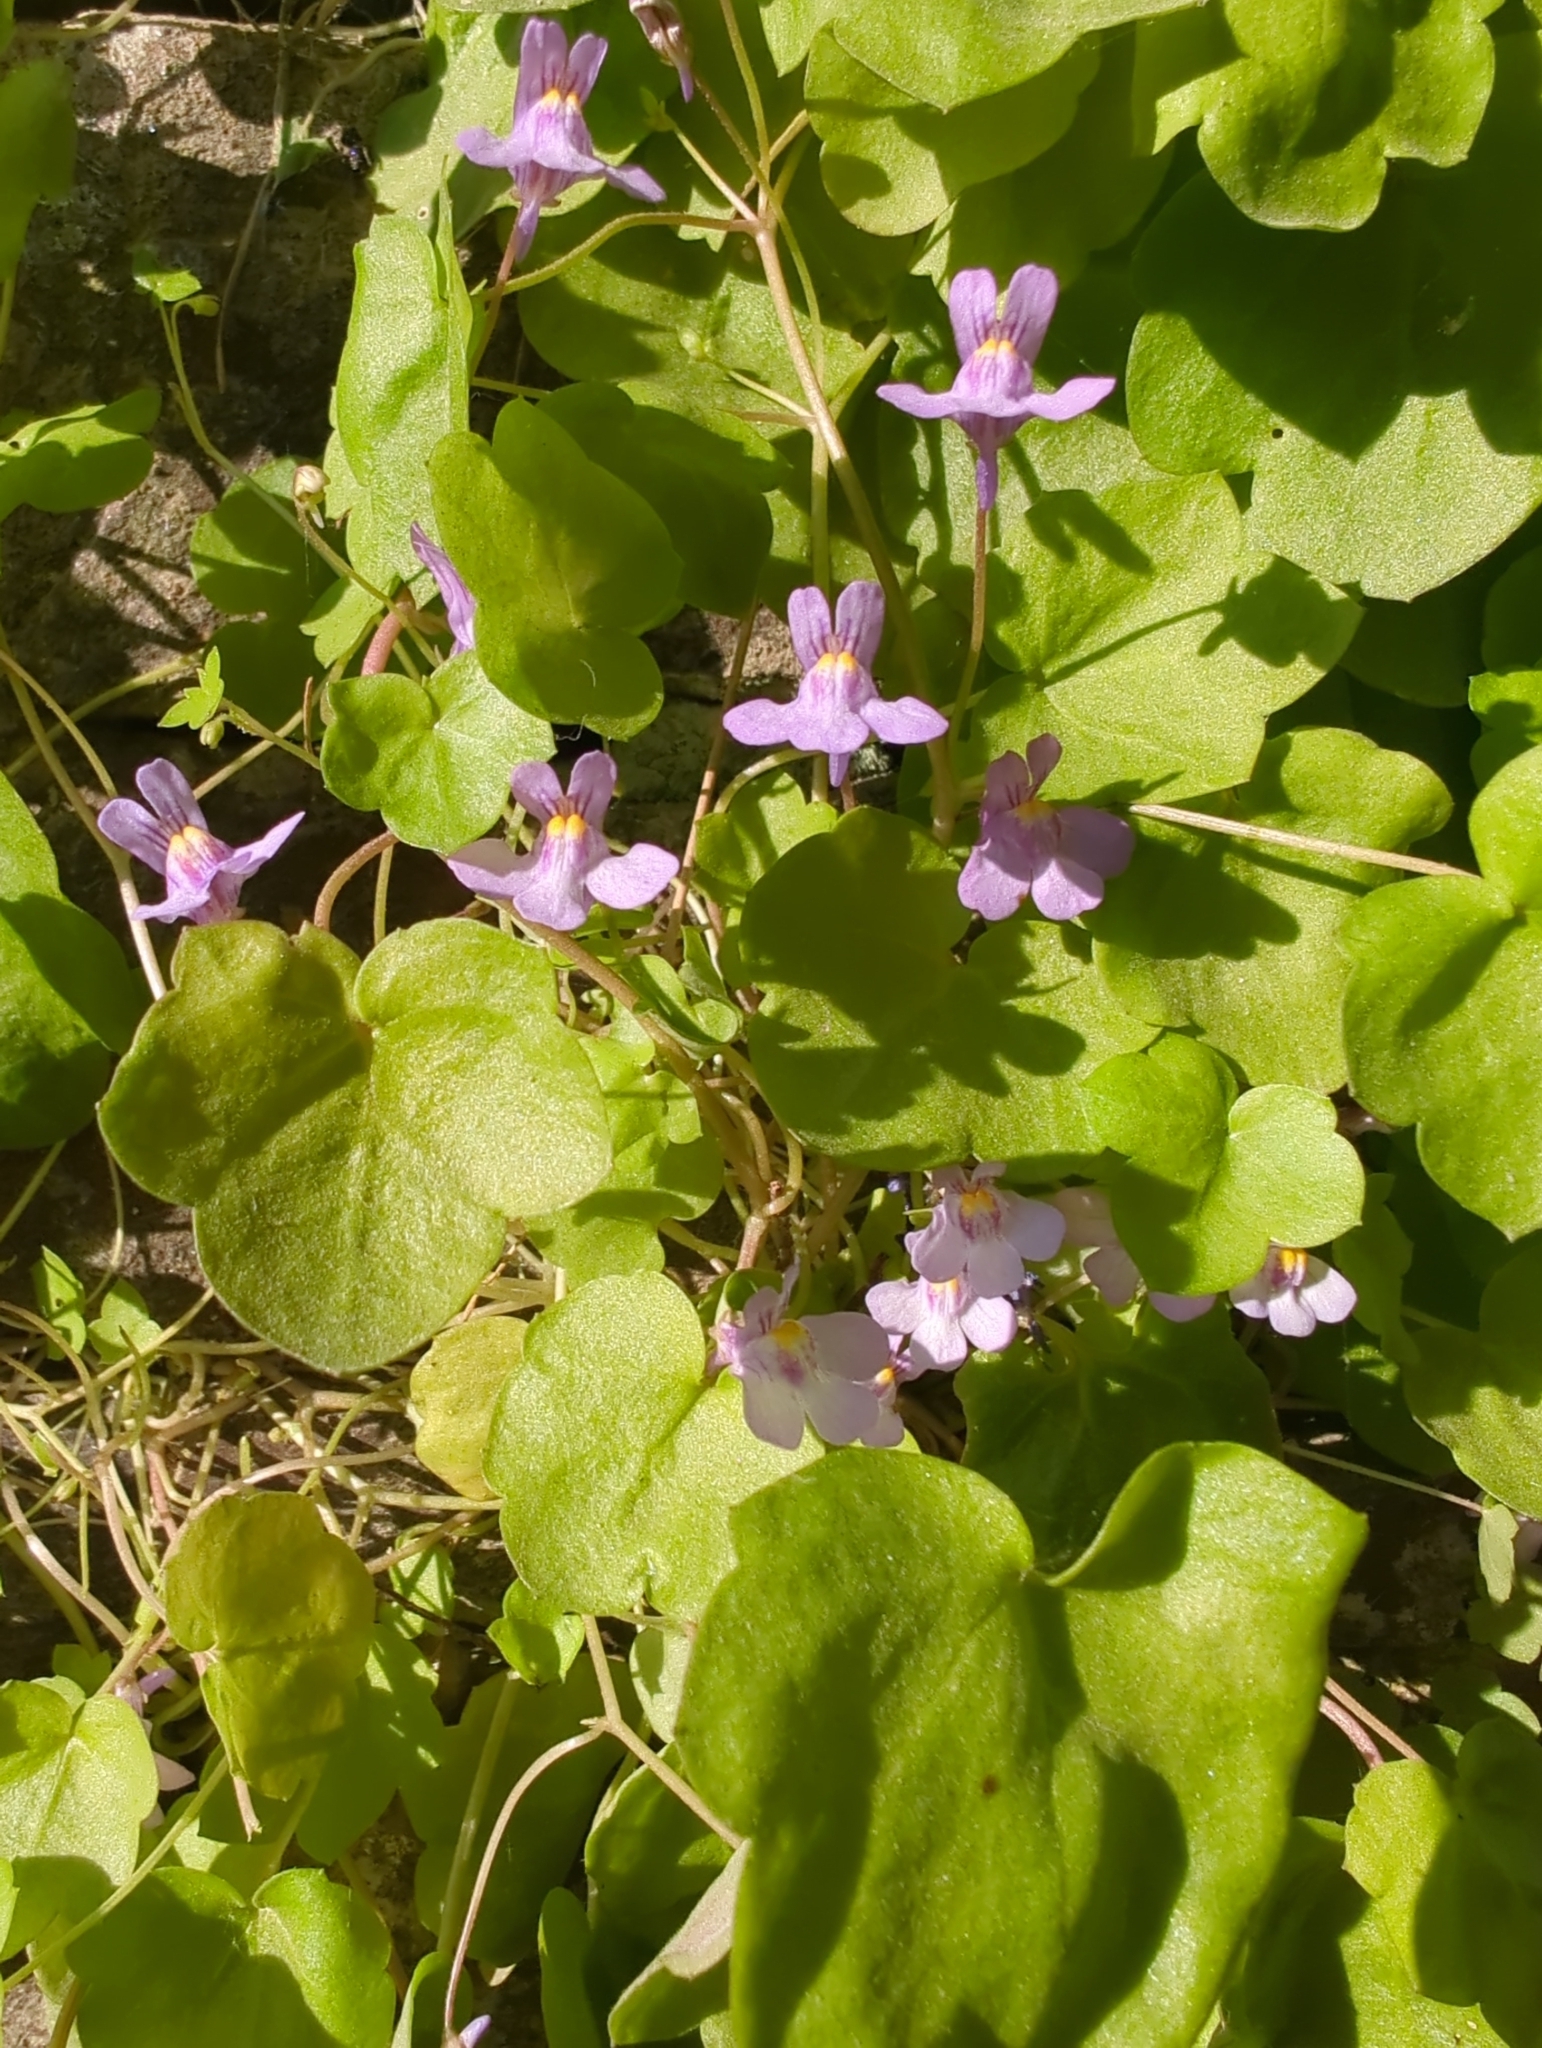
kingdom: Plantae
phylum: Tracheophyta
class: Magnoliopsida
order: Lamiales
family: Plantaginaceae
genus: Cymbalaria
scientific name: Cymbalaria muralis
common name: Ivy-leaved toadflax
